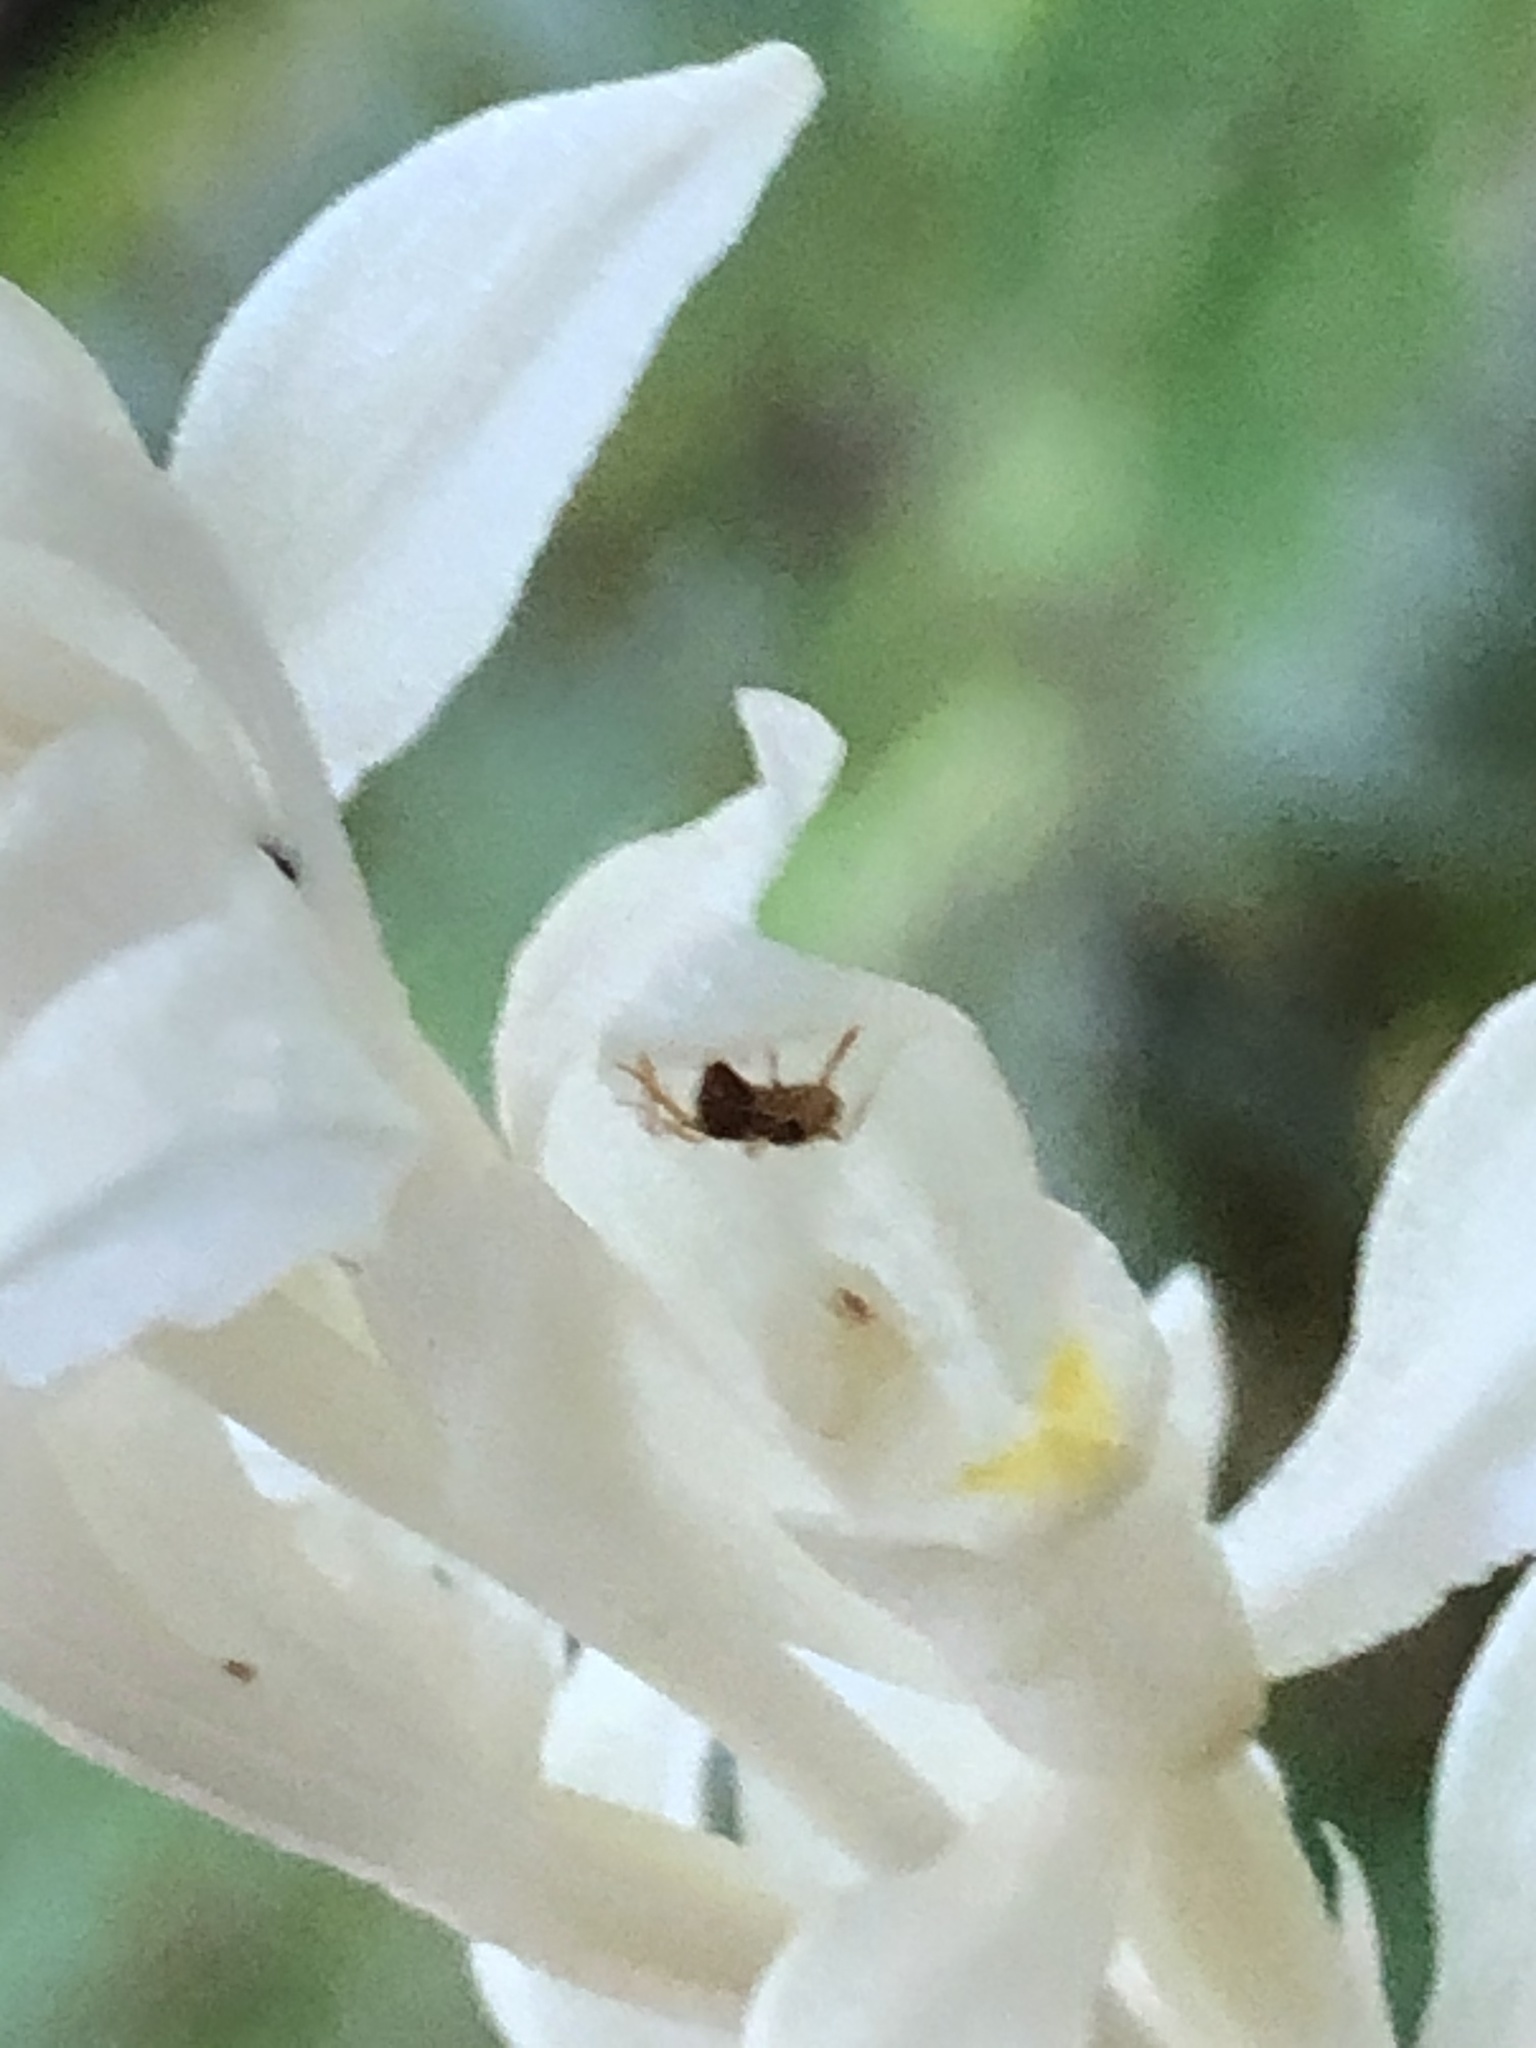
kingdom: Plantae
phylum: Tracheophyta
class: Liliopsida
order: Asparagales
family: Orchidaceae
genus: Cephalanthera
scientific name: Cephalanthera austiniae
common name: Phantom orchid
